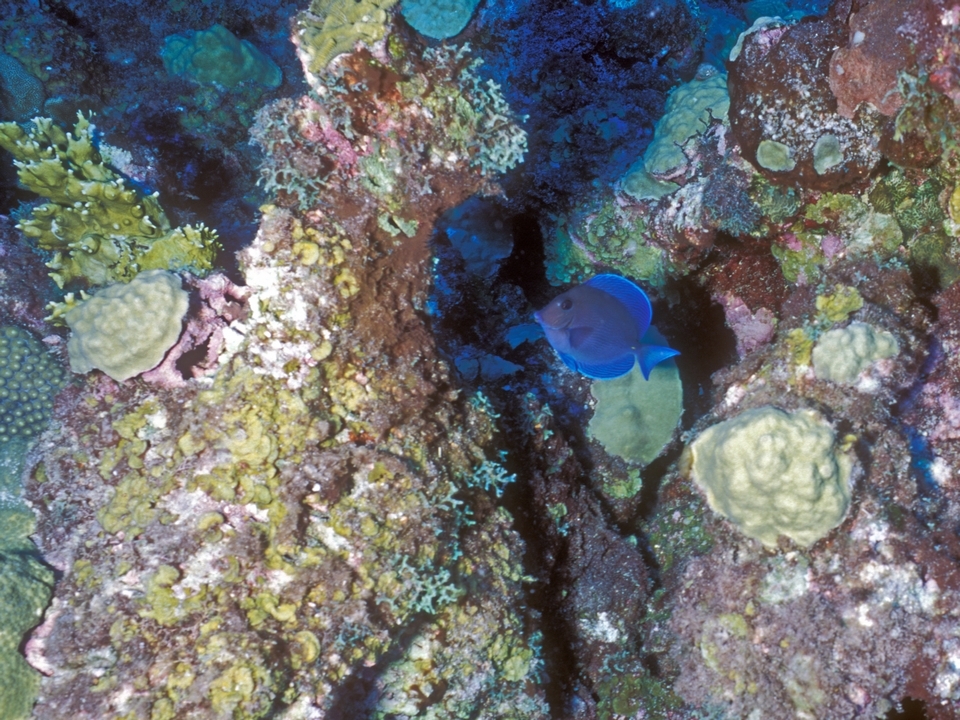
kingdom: Animalia
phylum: Chordata
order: Perciformes
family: Acanthuridae
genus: Acanthurus
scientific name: Acanthurus coeruleus
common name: Blue tang
